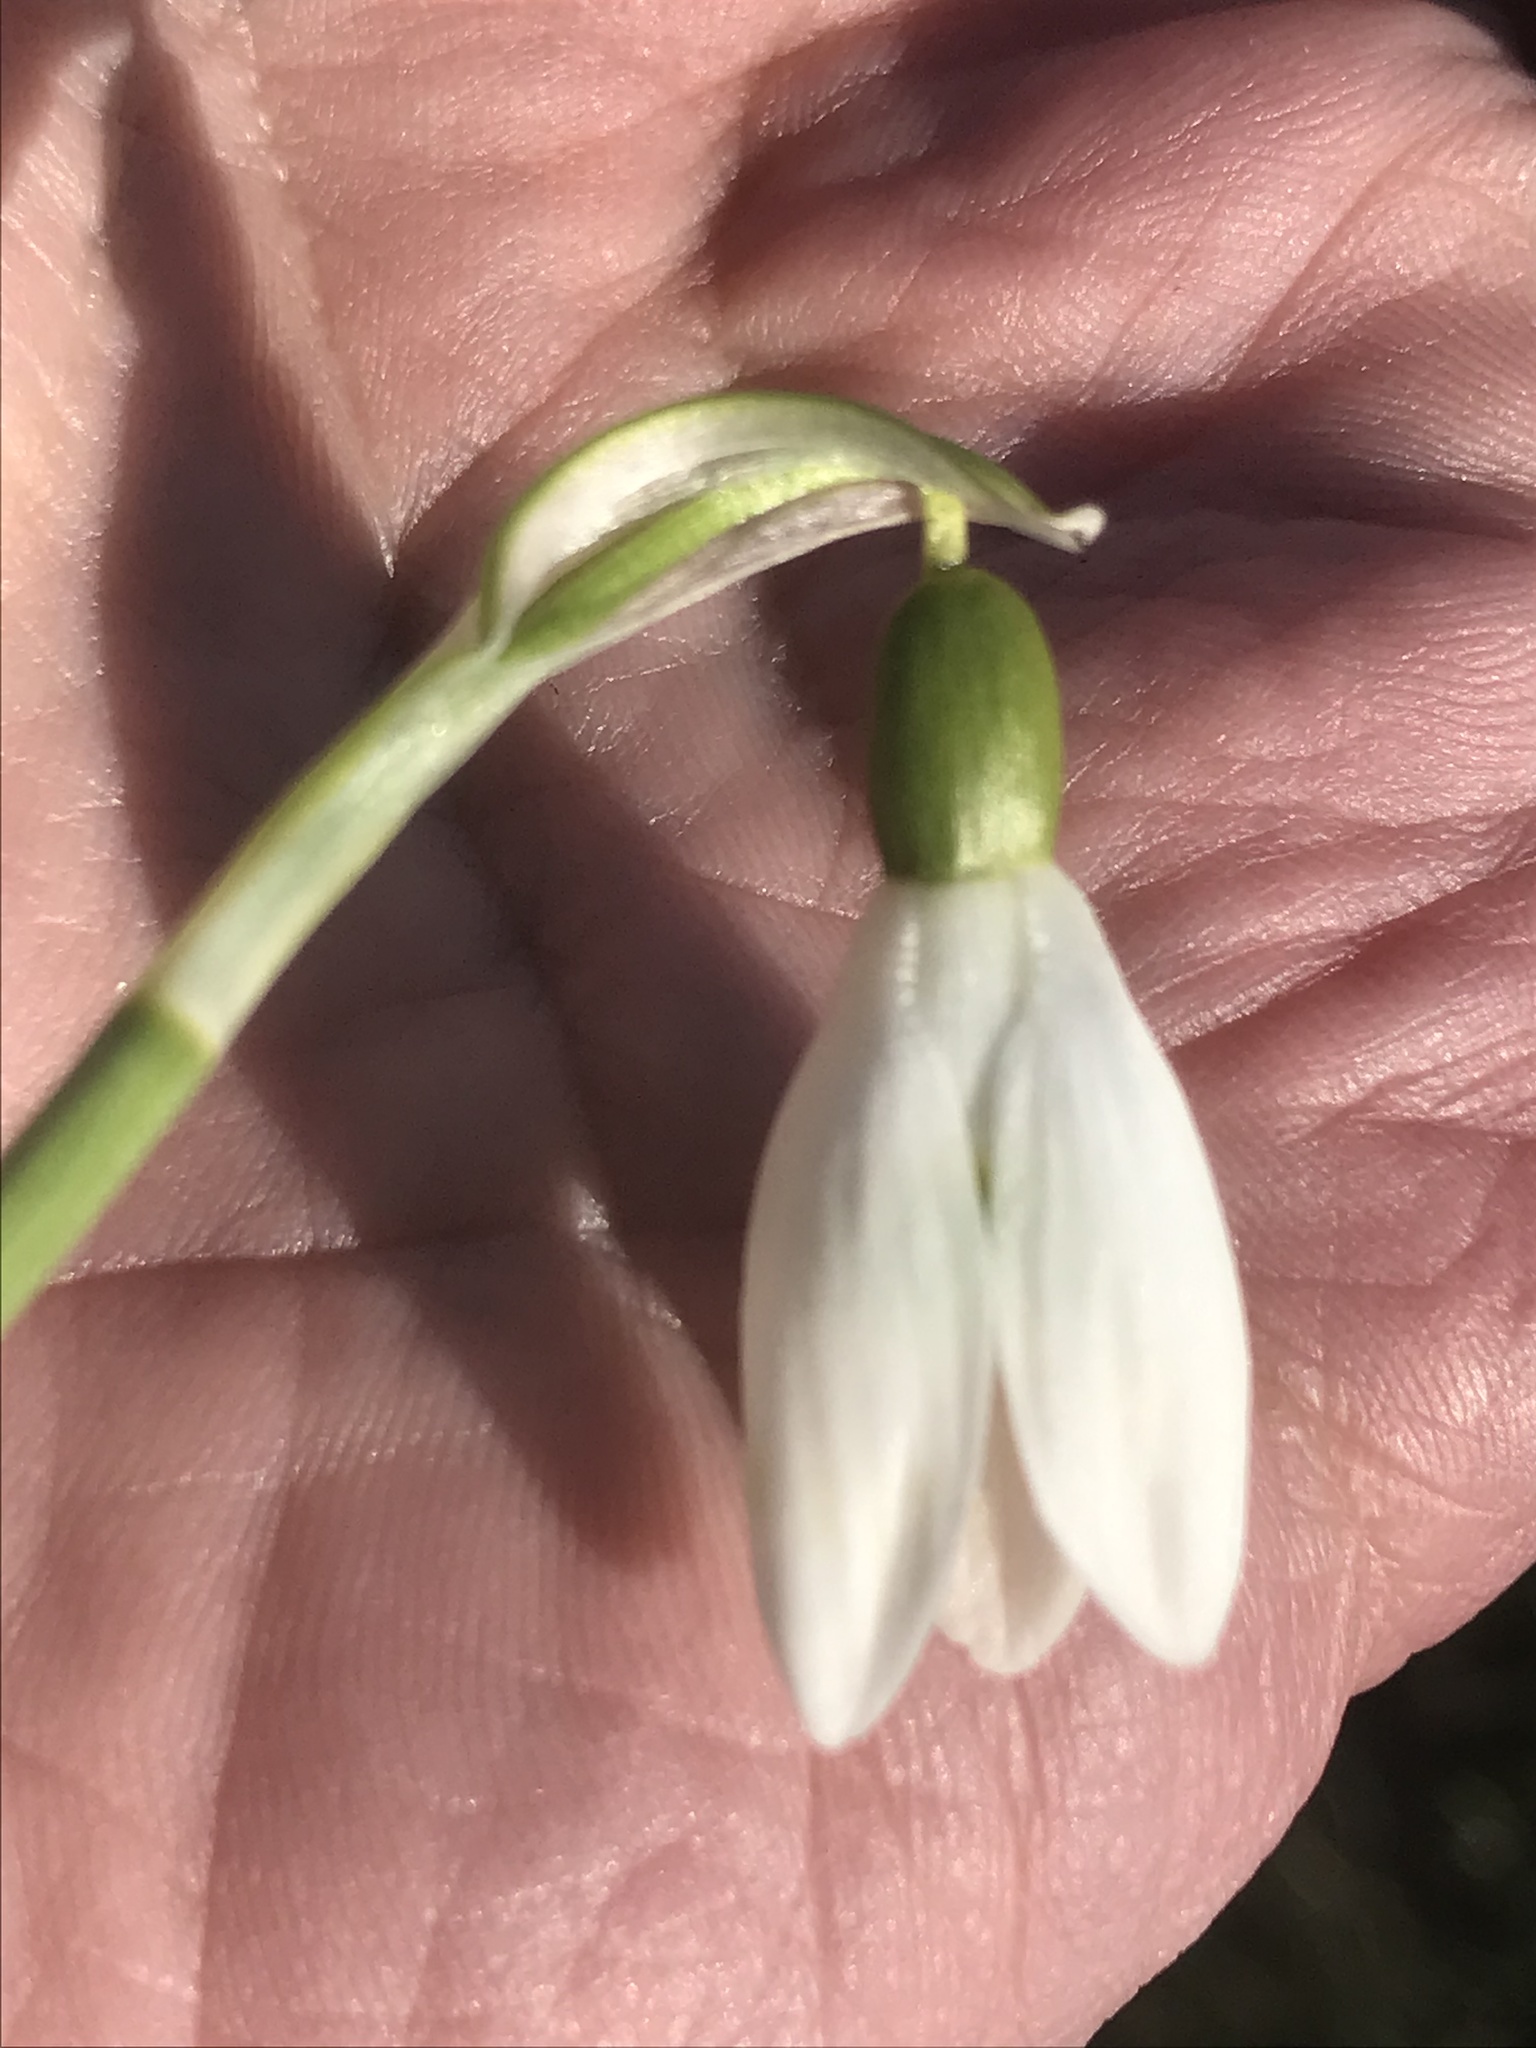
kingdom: Plantae
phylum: Tracheophyta
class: Liliopsida
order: Asparagales
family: Amaryllidaceae
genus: Galanthus
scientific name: Galanthus nivalis
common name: Snowdrop
